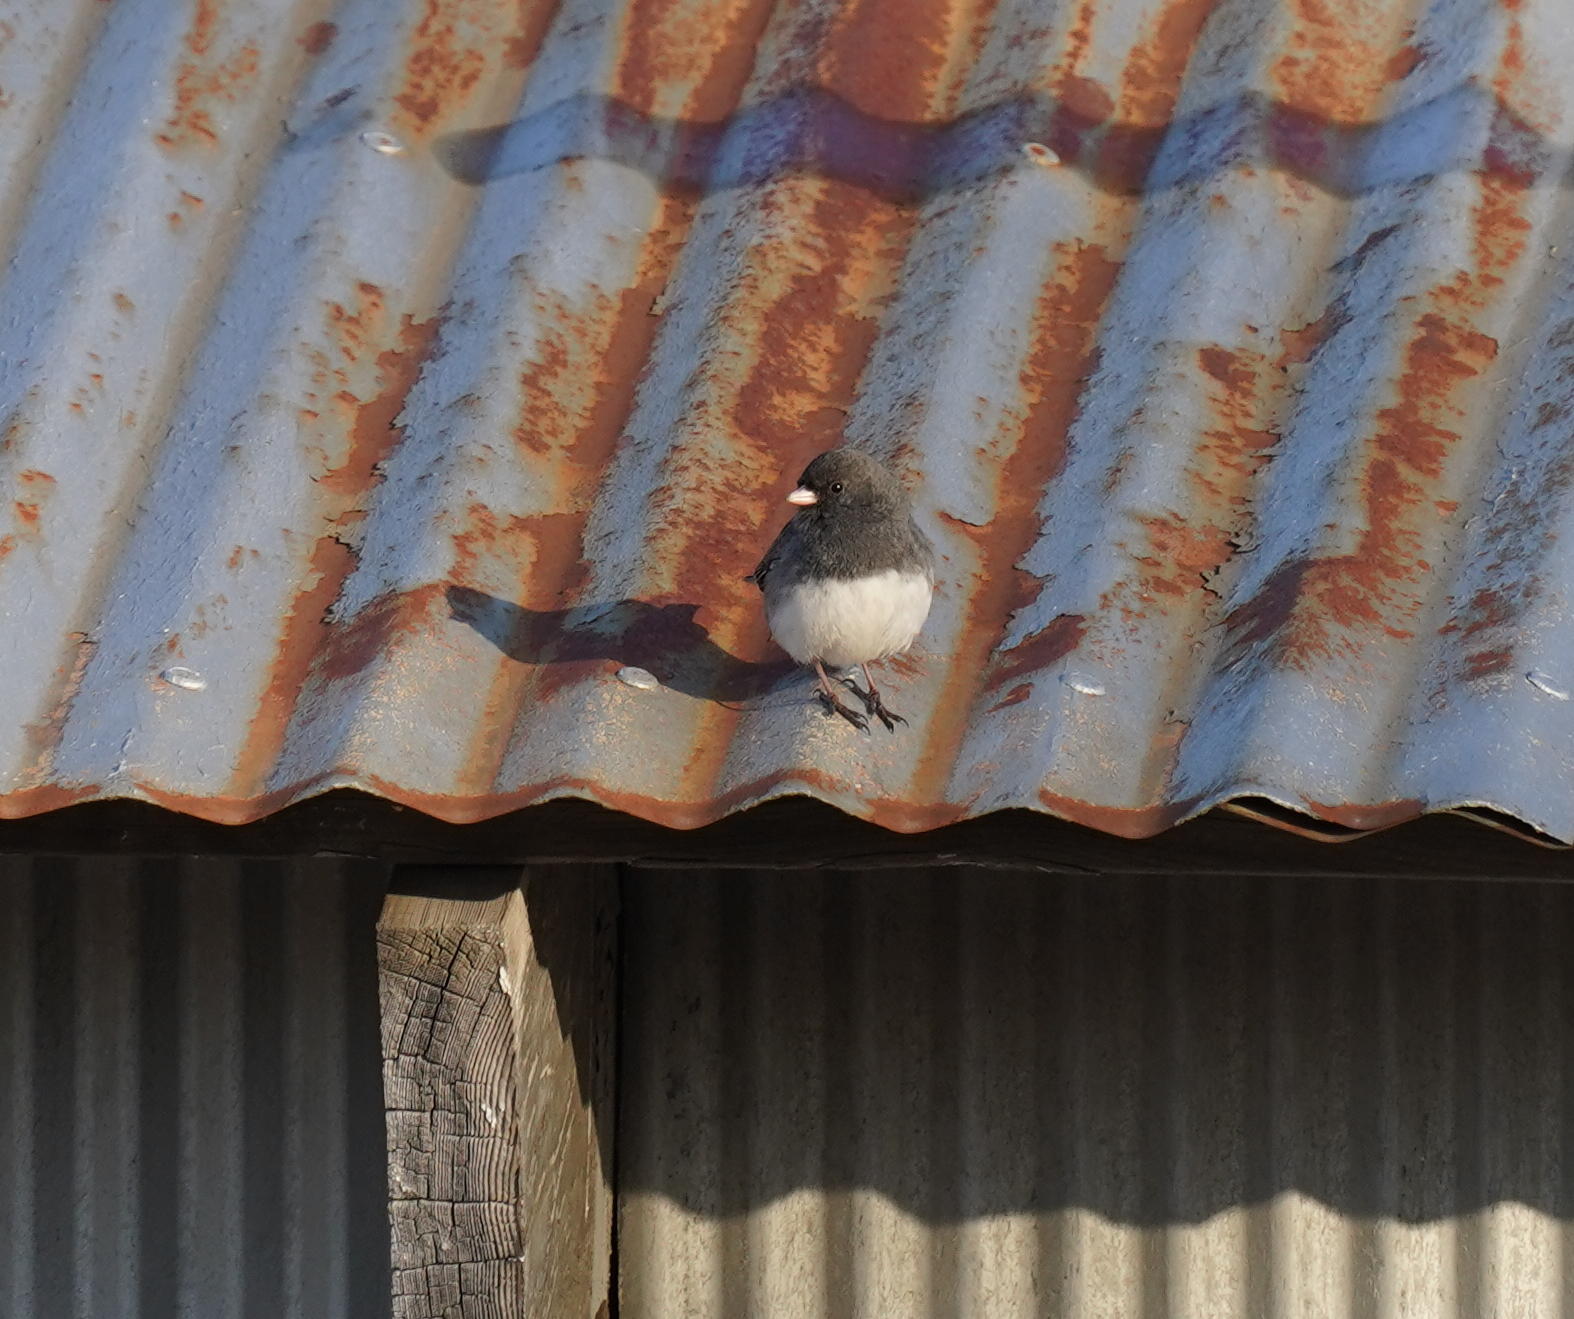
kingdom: Animalia
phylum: Chordata
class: Aves
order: Passeriformes
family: Passerellidae
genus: Junco
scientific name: Junco hyemalis
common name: Dark-eyed junco
